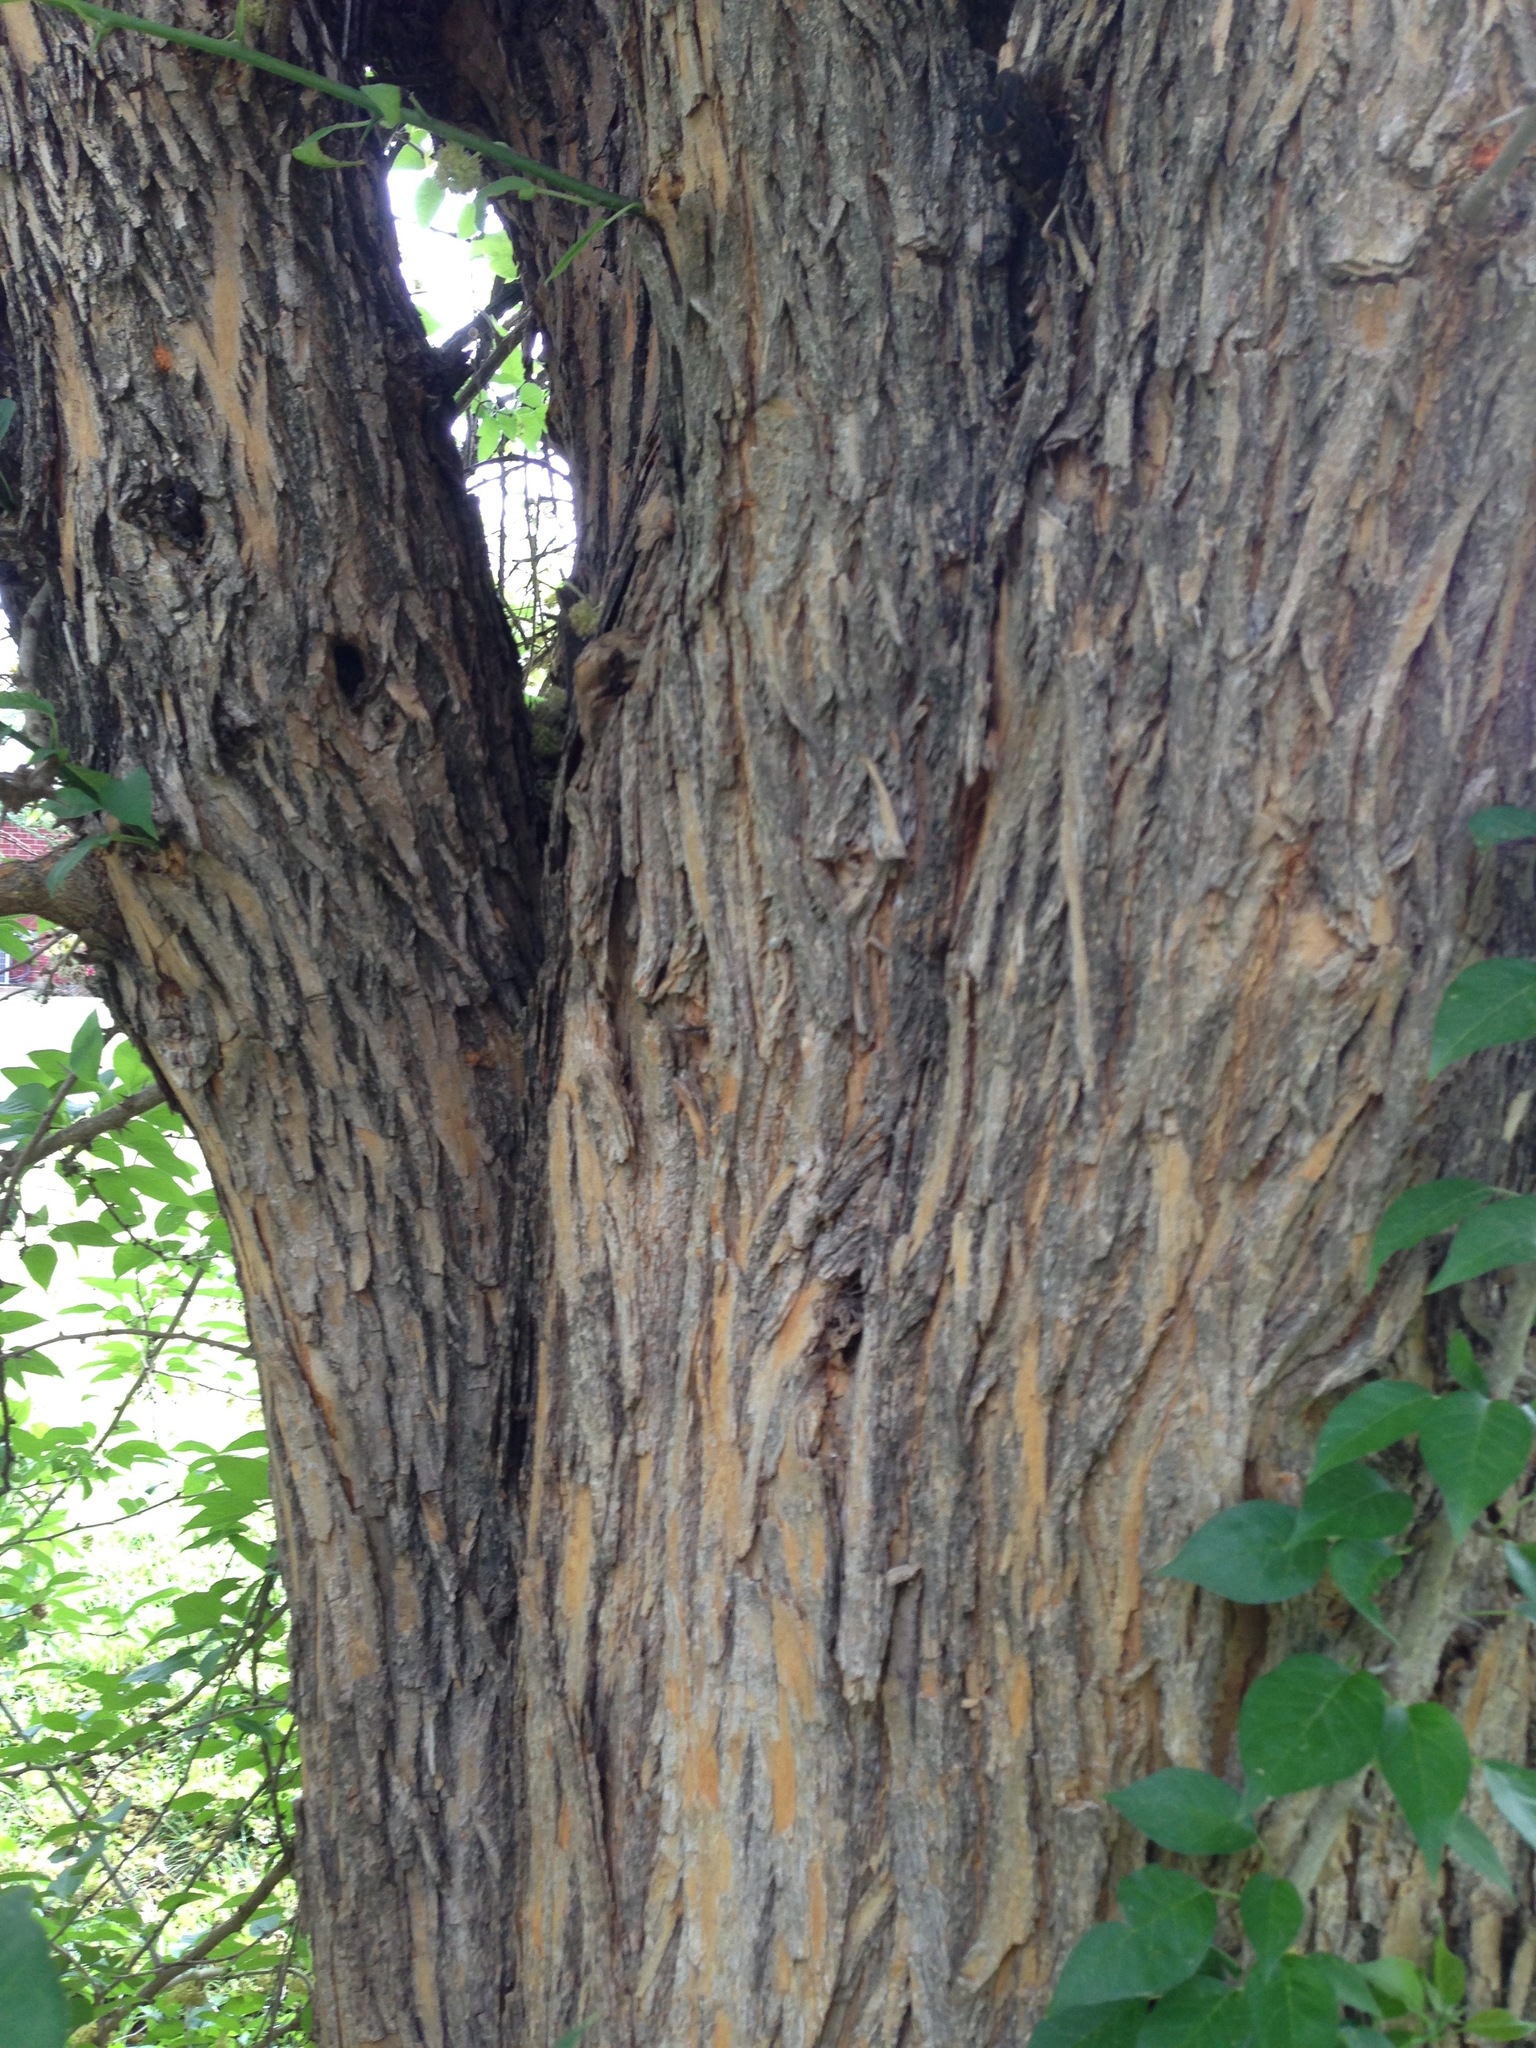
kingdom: Plantae
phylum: Tracheophyta
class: Magnoliopsida
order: Rosales
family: Moraceae
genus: Maclura
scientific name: Maclura pomifera
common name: Osage-orange
